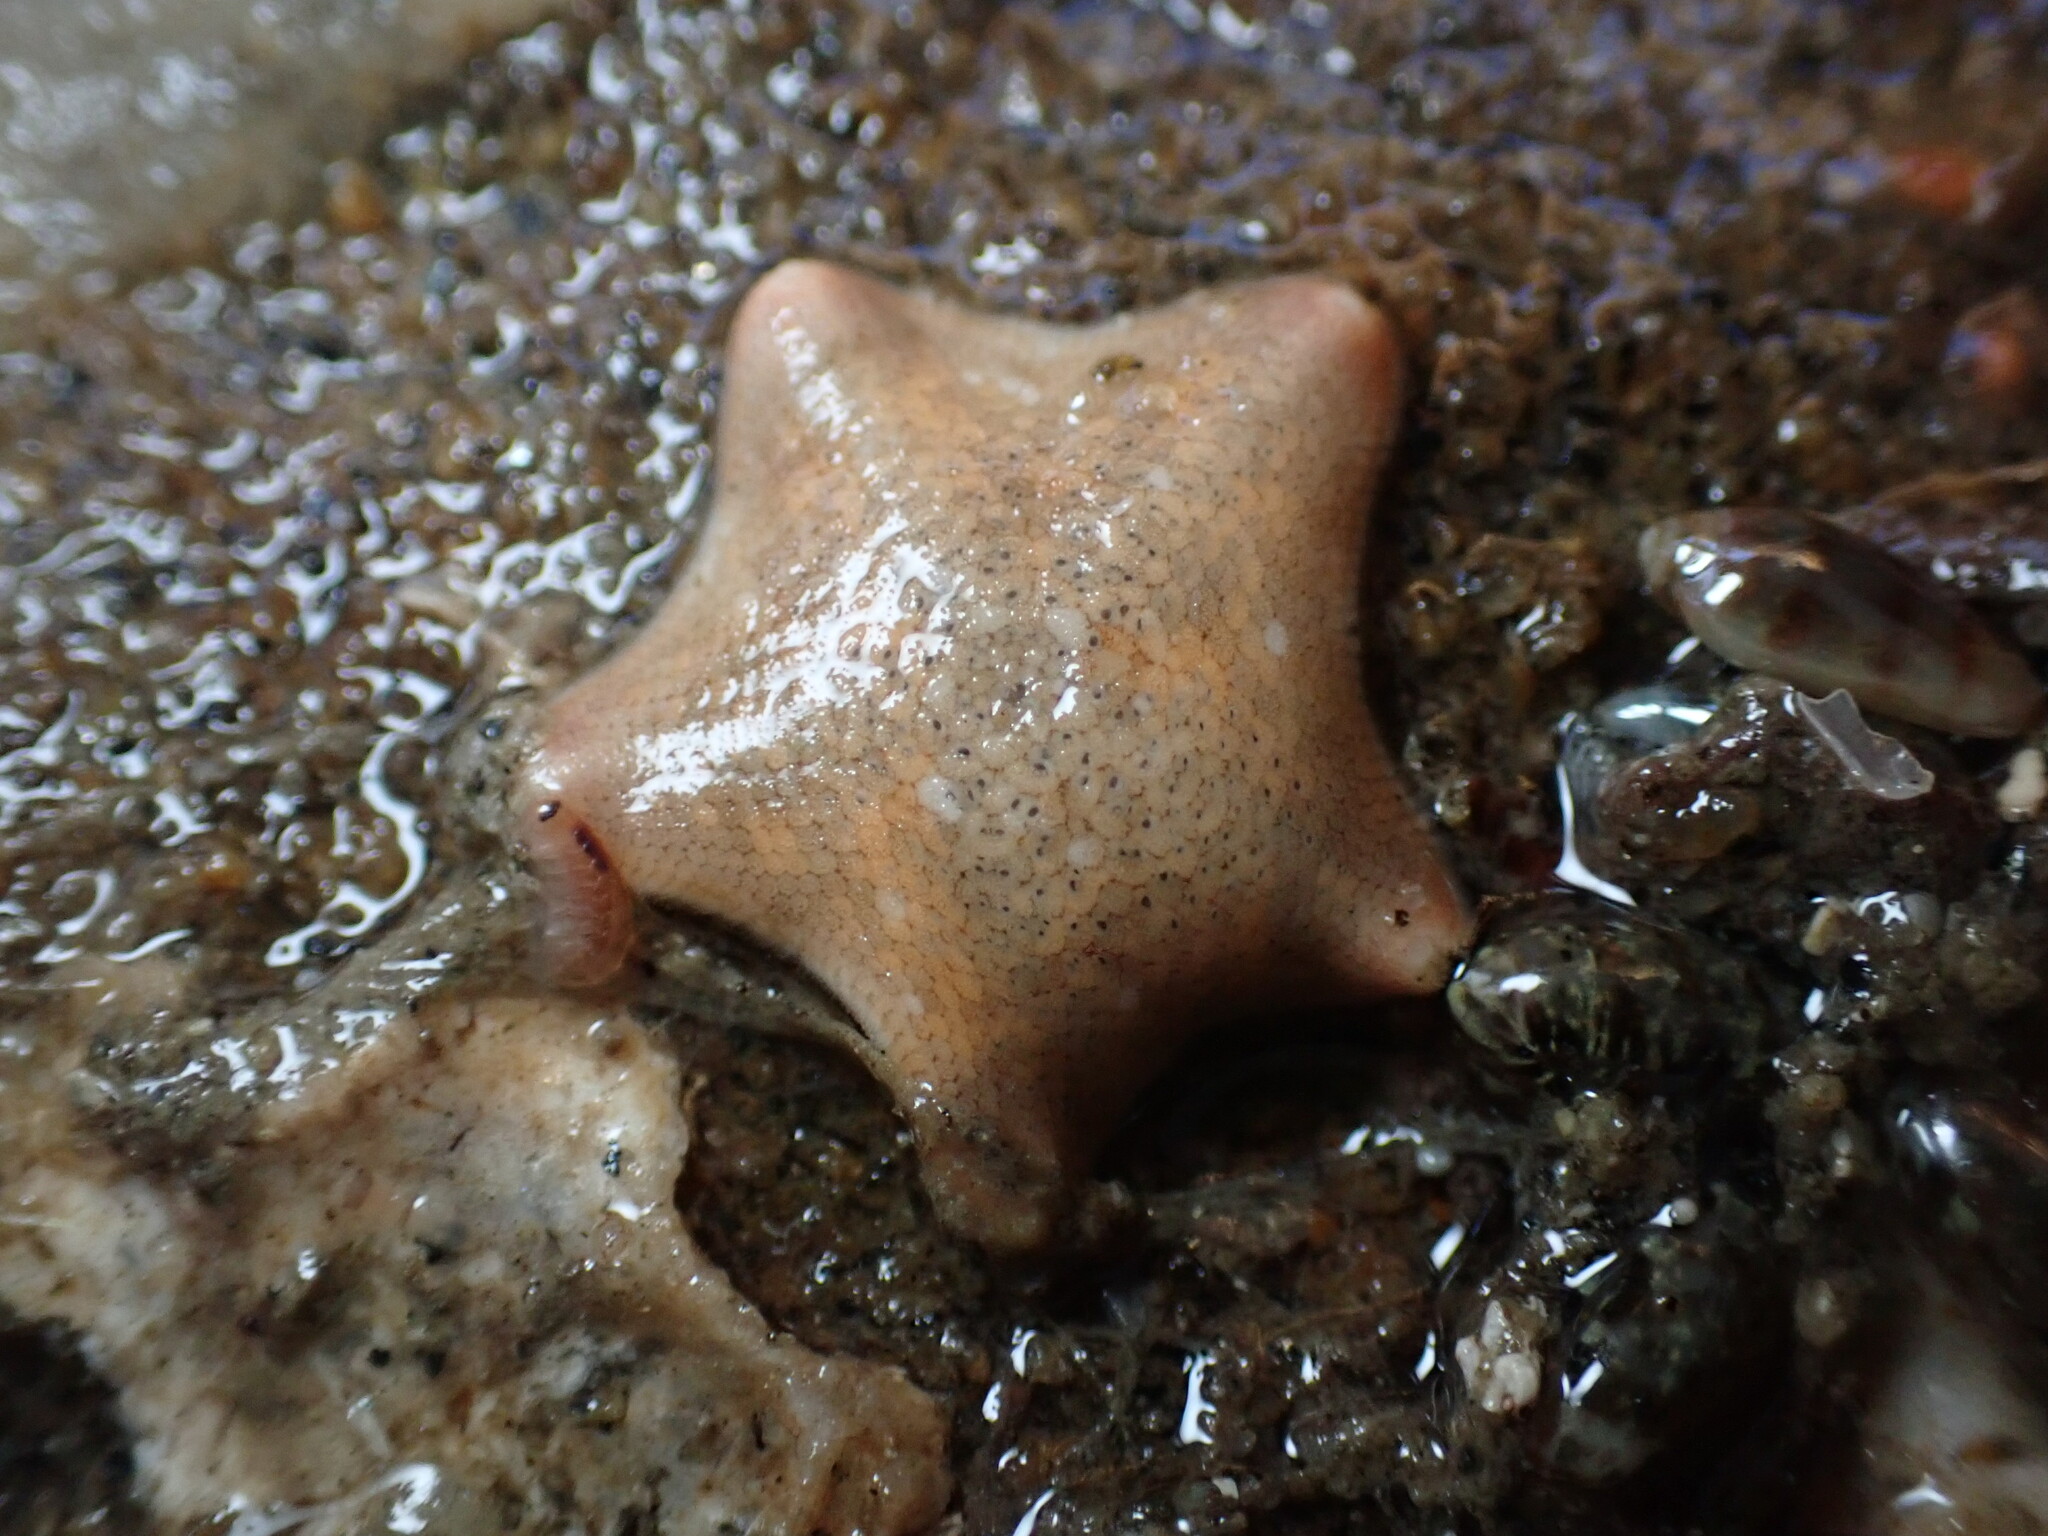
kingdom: Animalia
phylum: Echinodermata
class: Asteroidea
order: Valvatida
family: Asterinidae
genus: Patiria
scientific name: Patiria miniata
